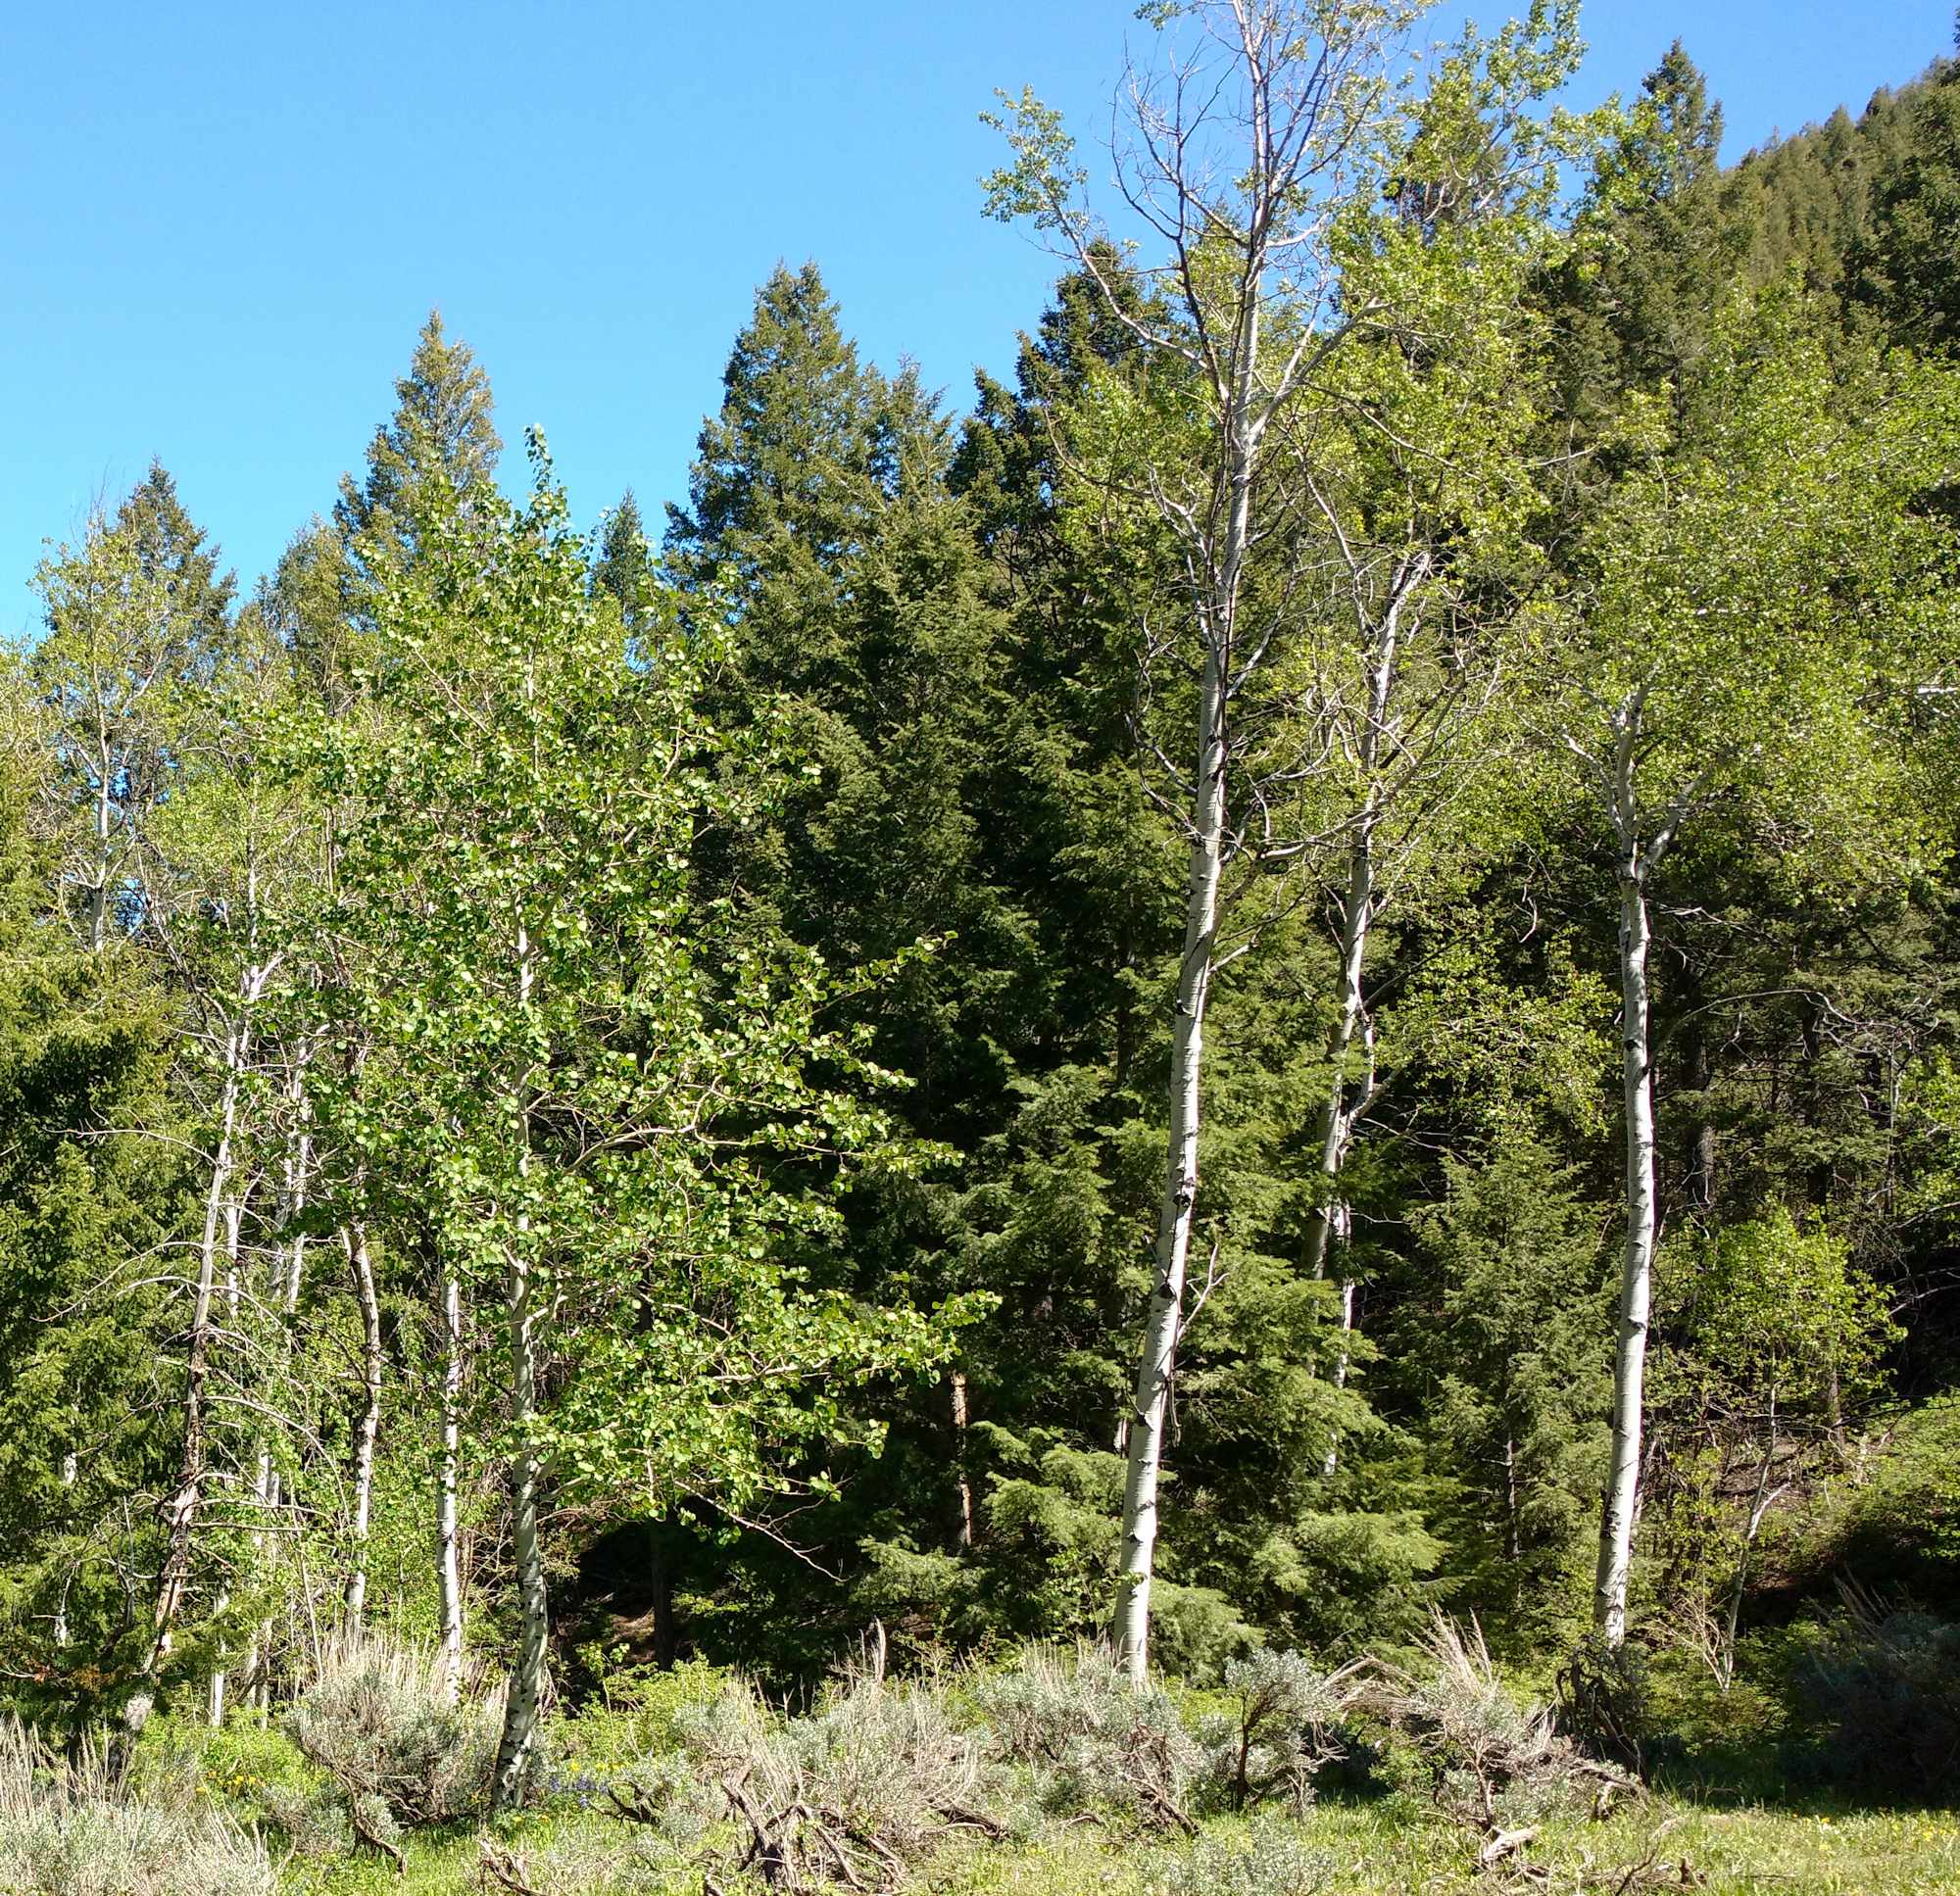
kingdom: Plantae
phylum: Tracheophyta
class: Magnoliopsida
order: Malpighiales
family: Salicaceae
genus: Populus
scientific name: Populus tremuloides
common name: Quaking aspen
